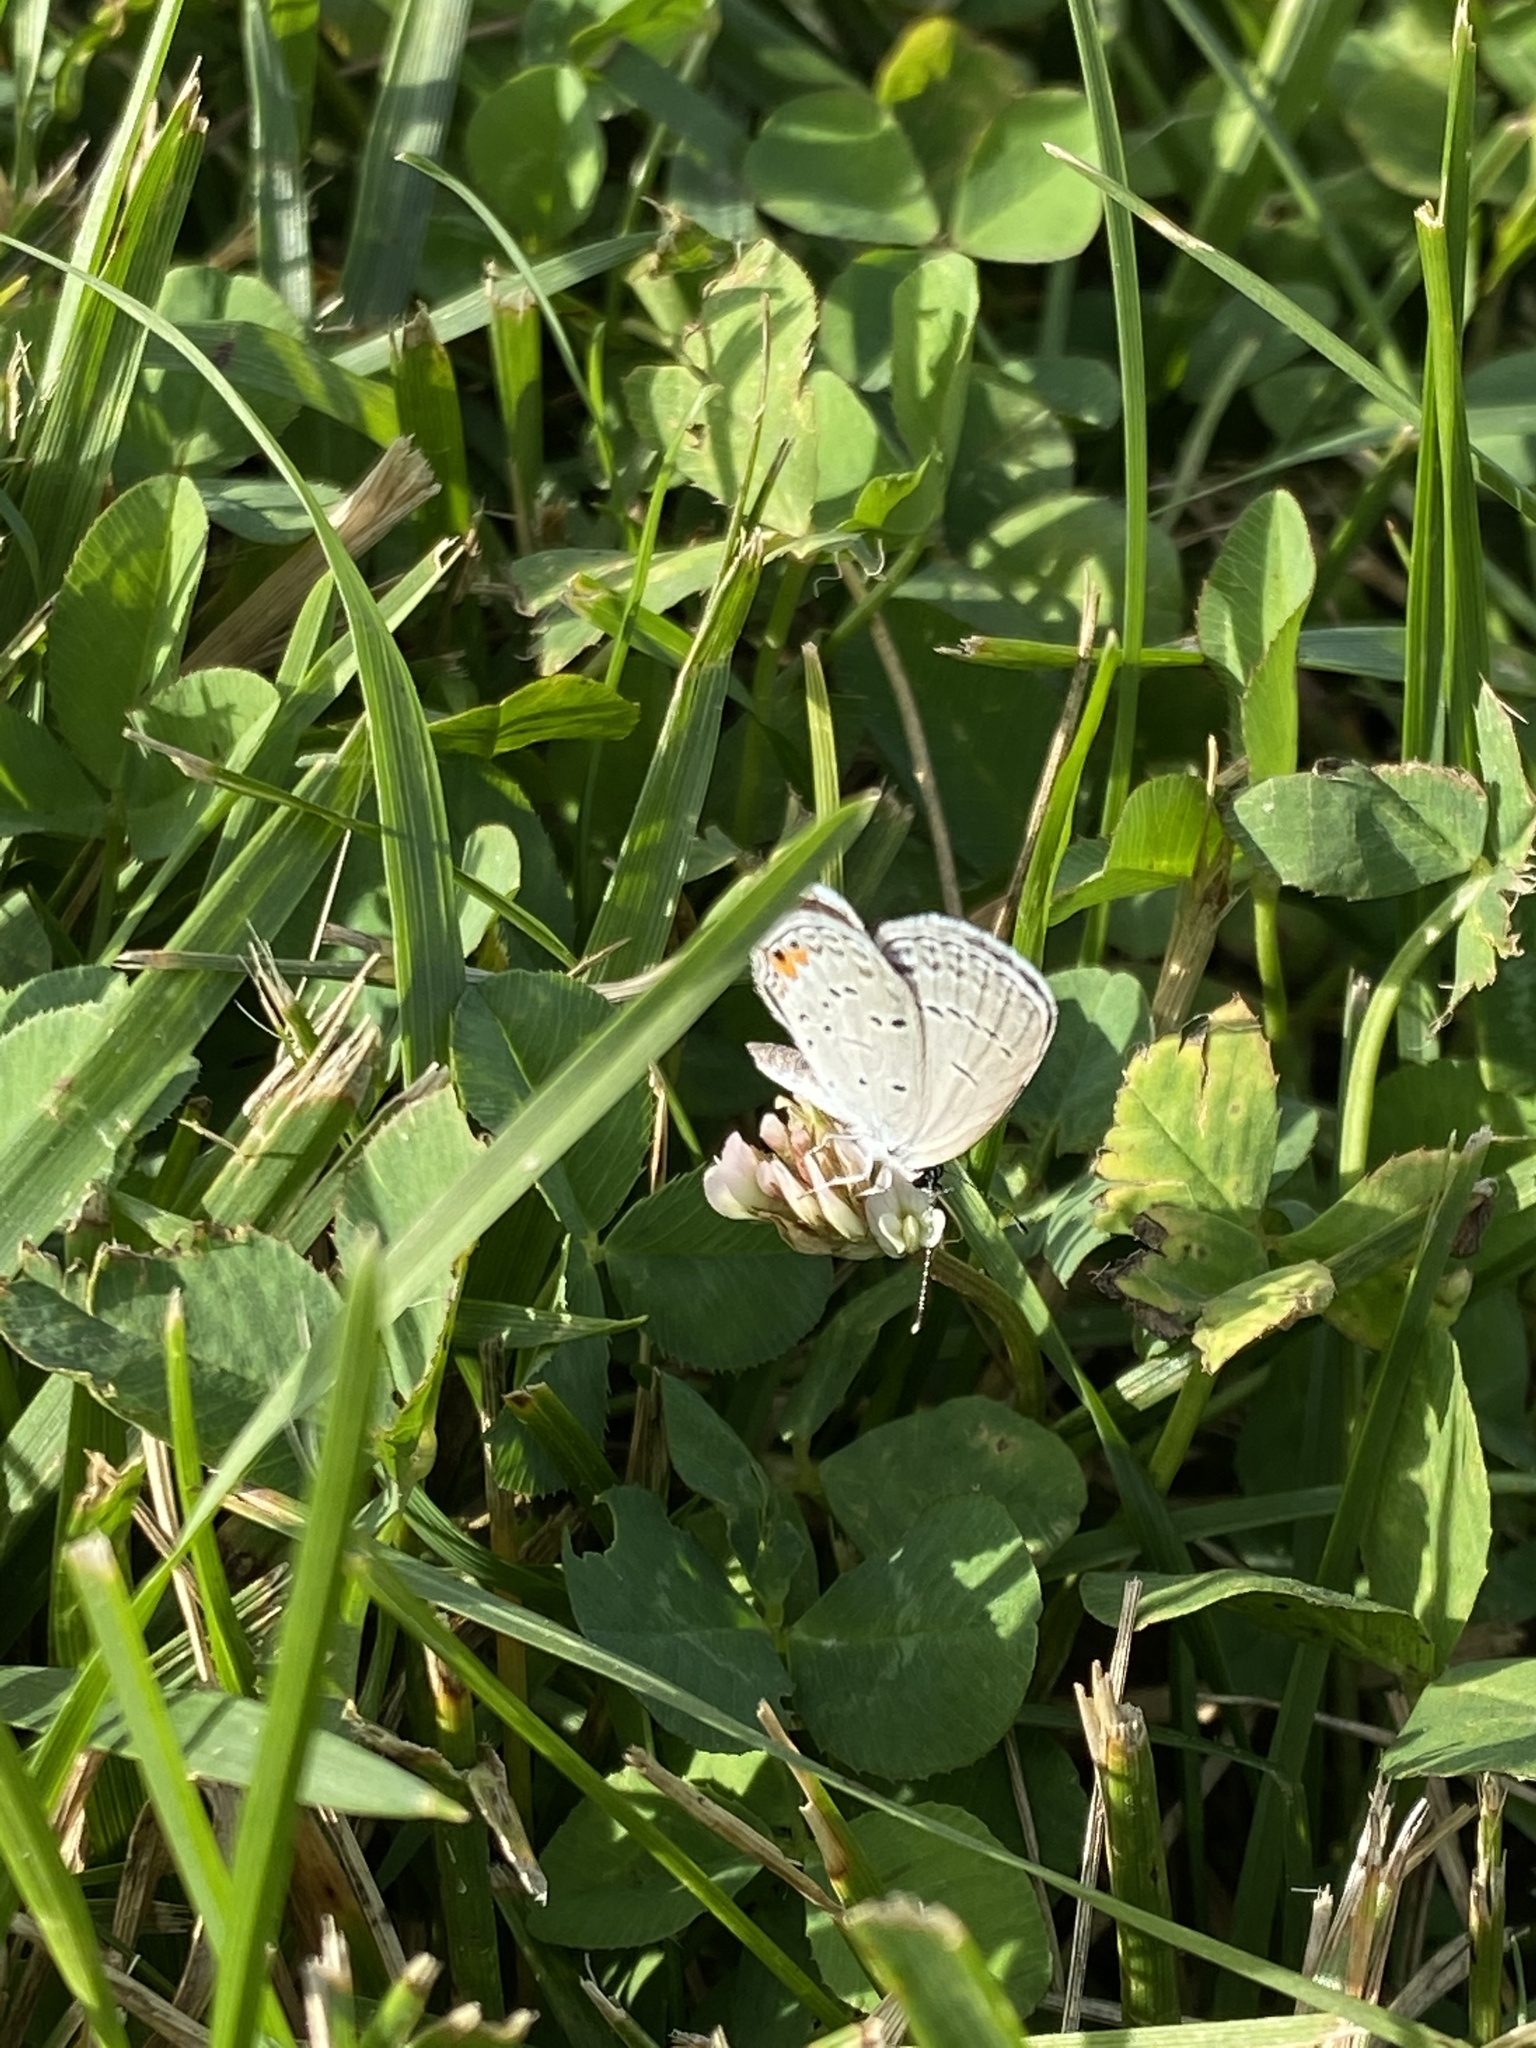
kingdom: Animalia
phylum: Arthropoda
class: Insecta
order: Lepidoptera
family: Lycaenidae
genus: Elkalyce
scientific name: Elkalyce comyntas
